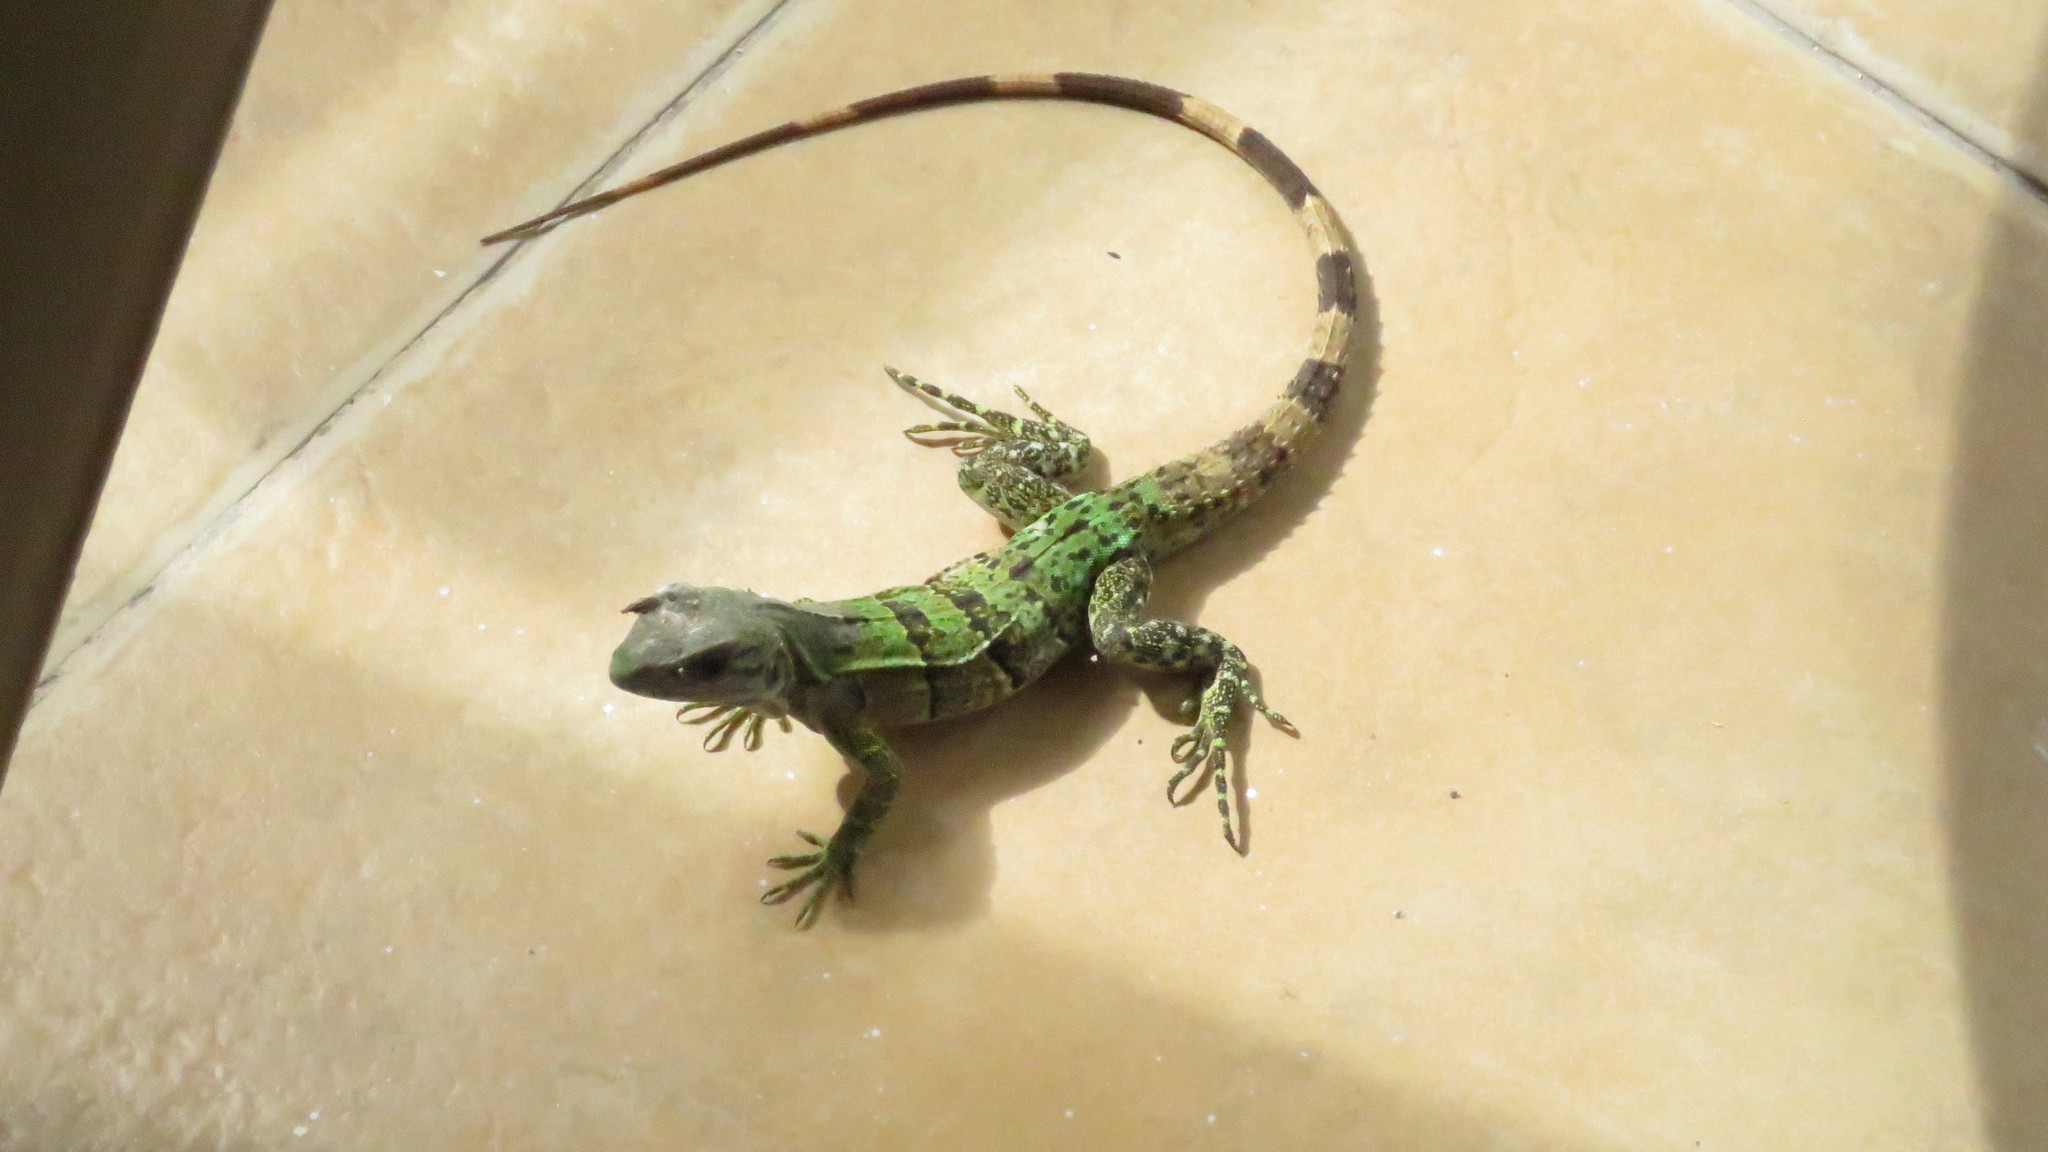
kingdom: Animalia
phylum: Chordata
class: Squamata
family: Iguanidae
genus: Ctenosaura
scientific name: Ctenosaura similis
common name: Black spiny-tailed iguana
